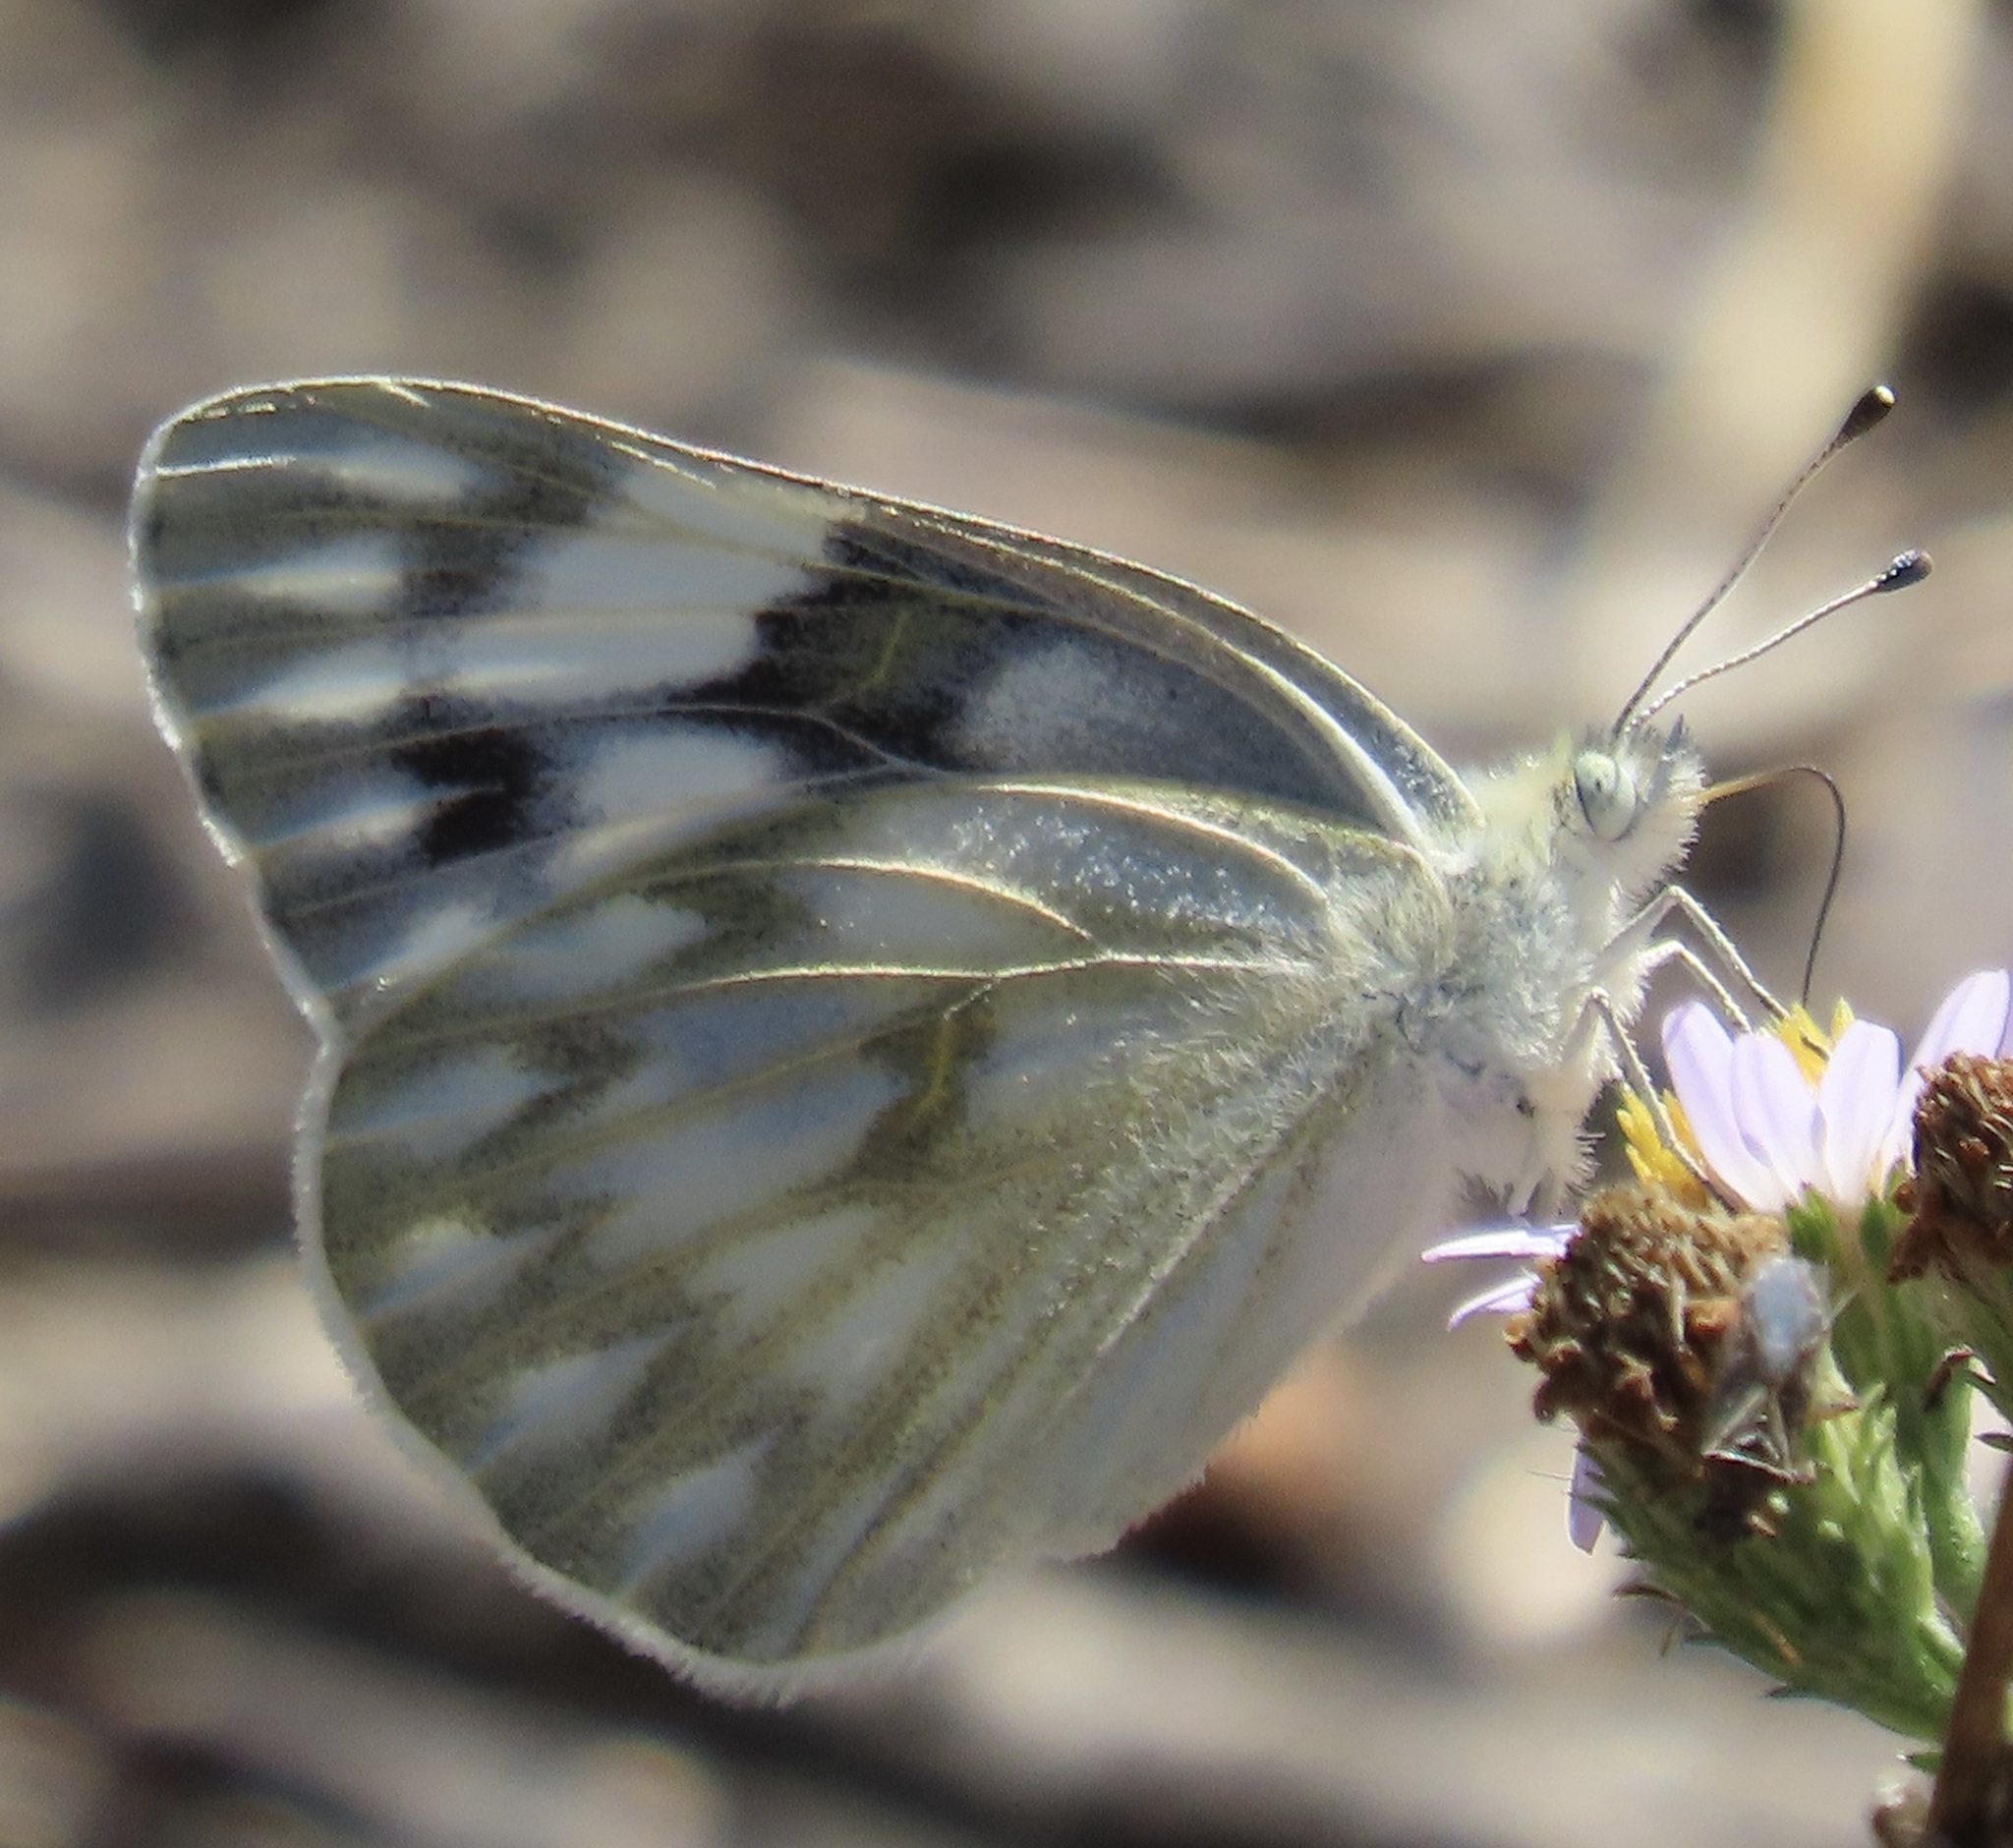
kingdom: Animalia
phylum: Arthropoda
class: Insecta
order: Lepidoptera
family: Pieridae
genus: Pontia
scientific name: Pontia protodice
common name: Checkered white
